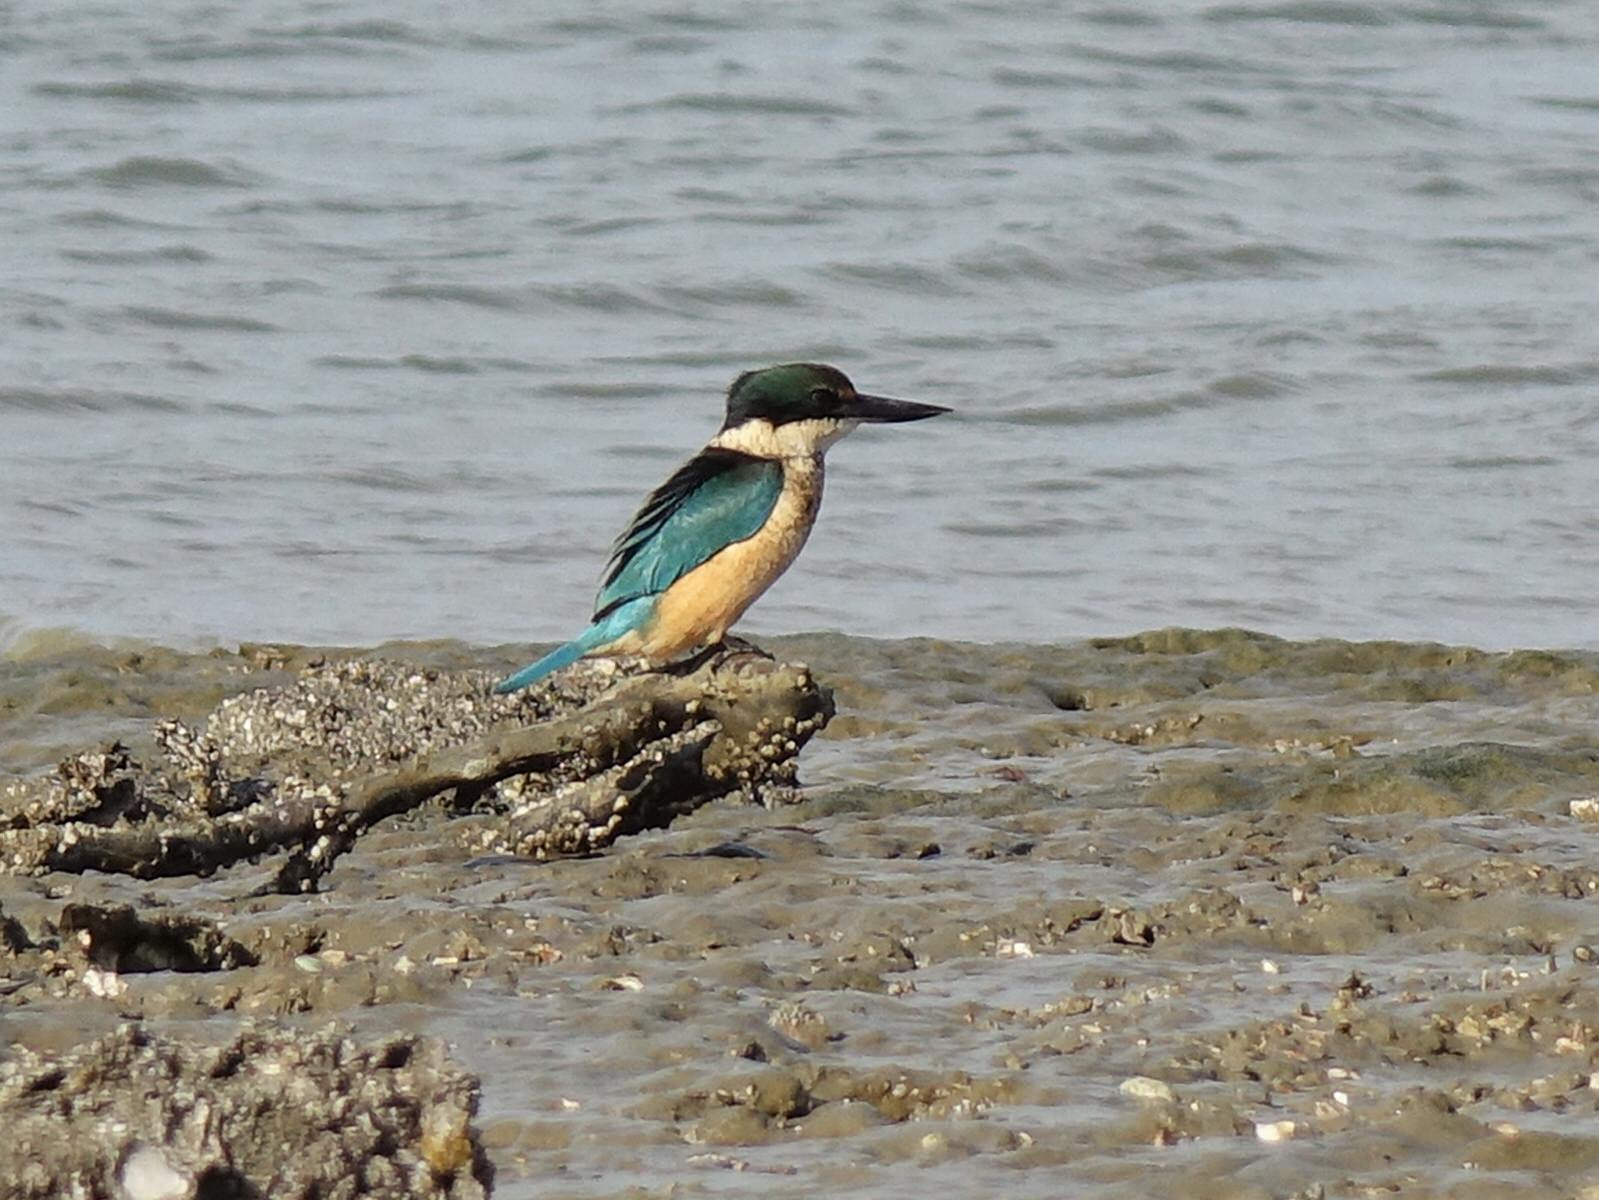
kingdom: Animalia
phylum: Chordata
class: Aves
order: Coraciiformes
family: Alcedinidae
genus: Todiramphus
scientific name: Todiramphus sanctus
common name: Sacred kingfisher
